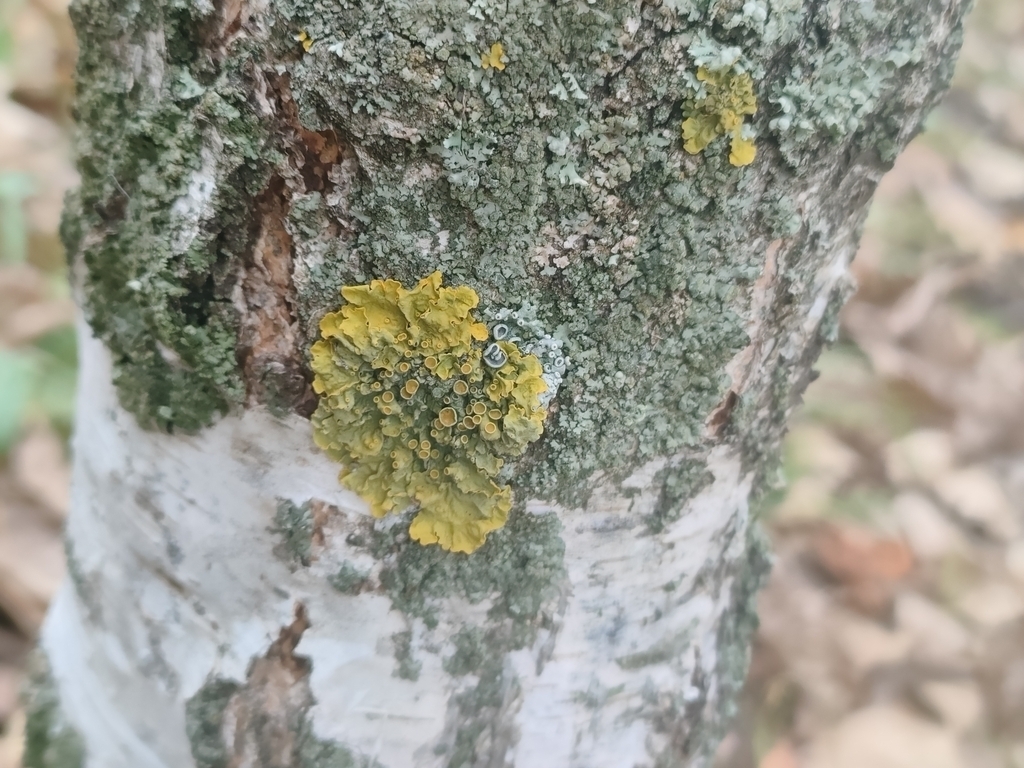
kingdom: Fungi
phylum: Ascomycota
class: Lecanoromycetes
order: Teloschistales
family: Teloschistaceae
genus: Xanthoria
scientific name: Xanthoria parietina
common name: Common orange lichen
